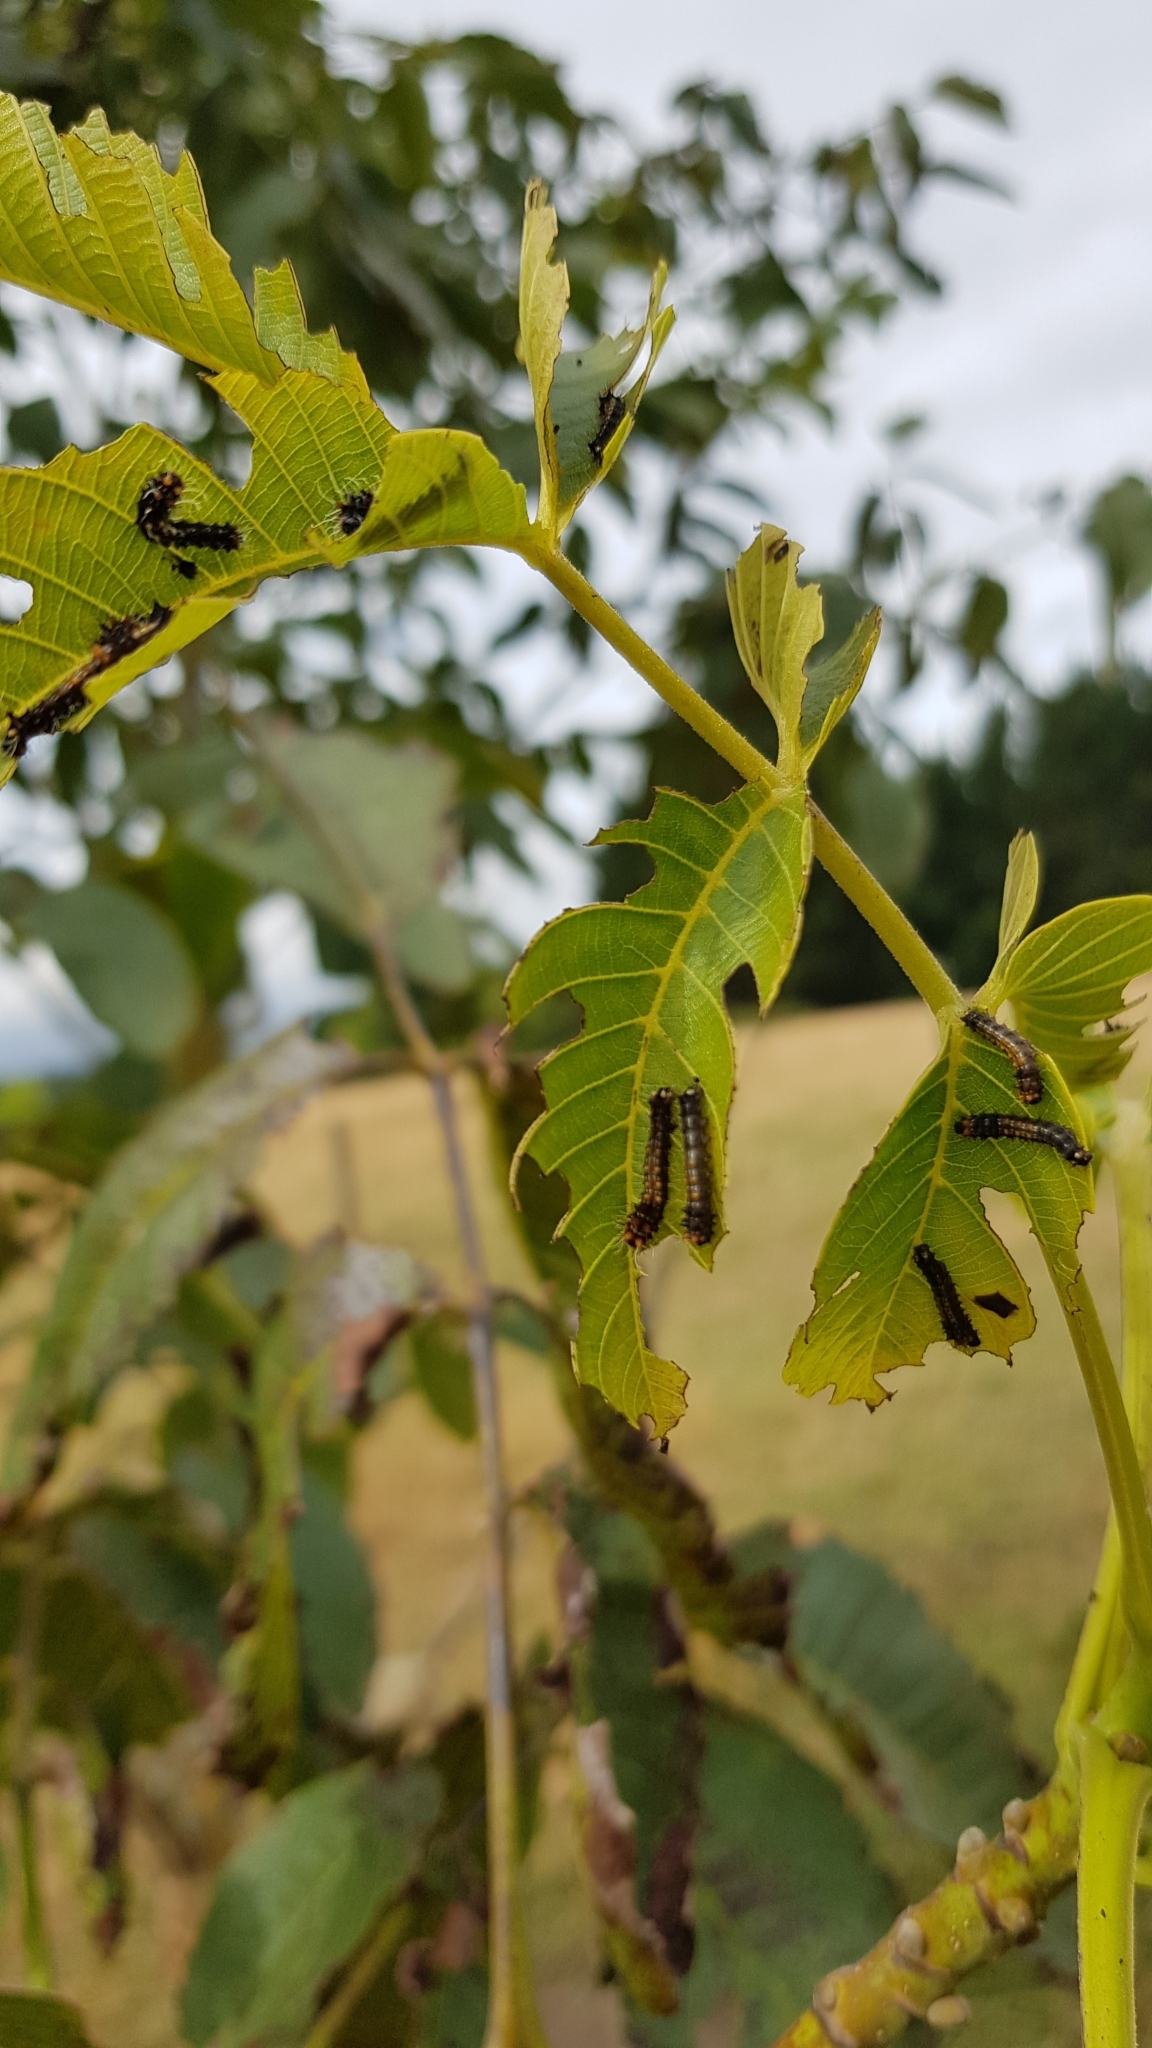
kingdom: Animalia
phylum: Arthropoda
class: Insecta
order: Lepidoptera
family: Saturniidae
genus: Opodiphthera
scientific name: Opodiphthera
